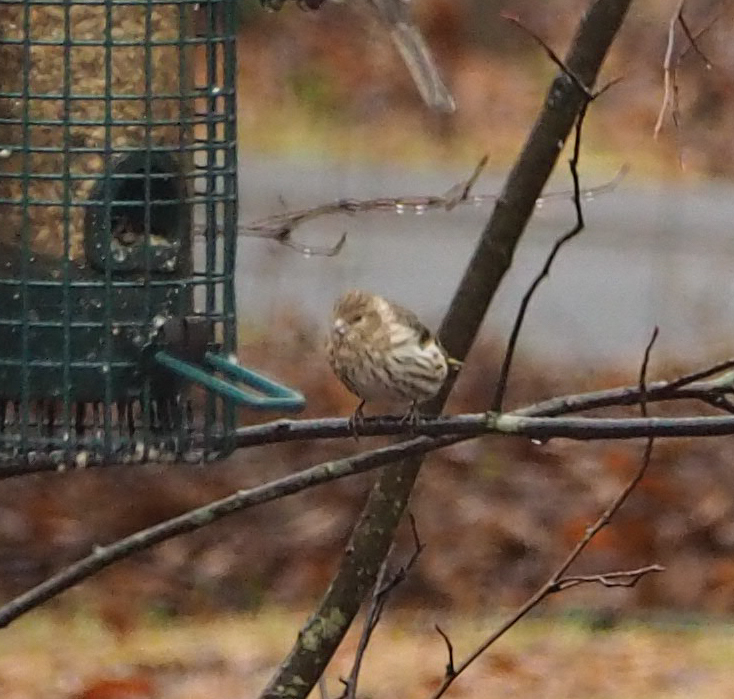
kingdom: Animalia
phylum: Chordata
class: Aves
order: Passeriformes
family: Fringillidae
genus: Haemorhous
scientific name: Haemorhous mexicanus
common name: House finch
